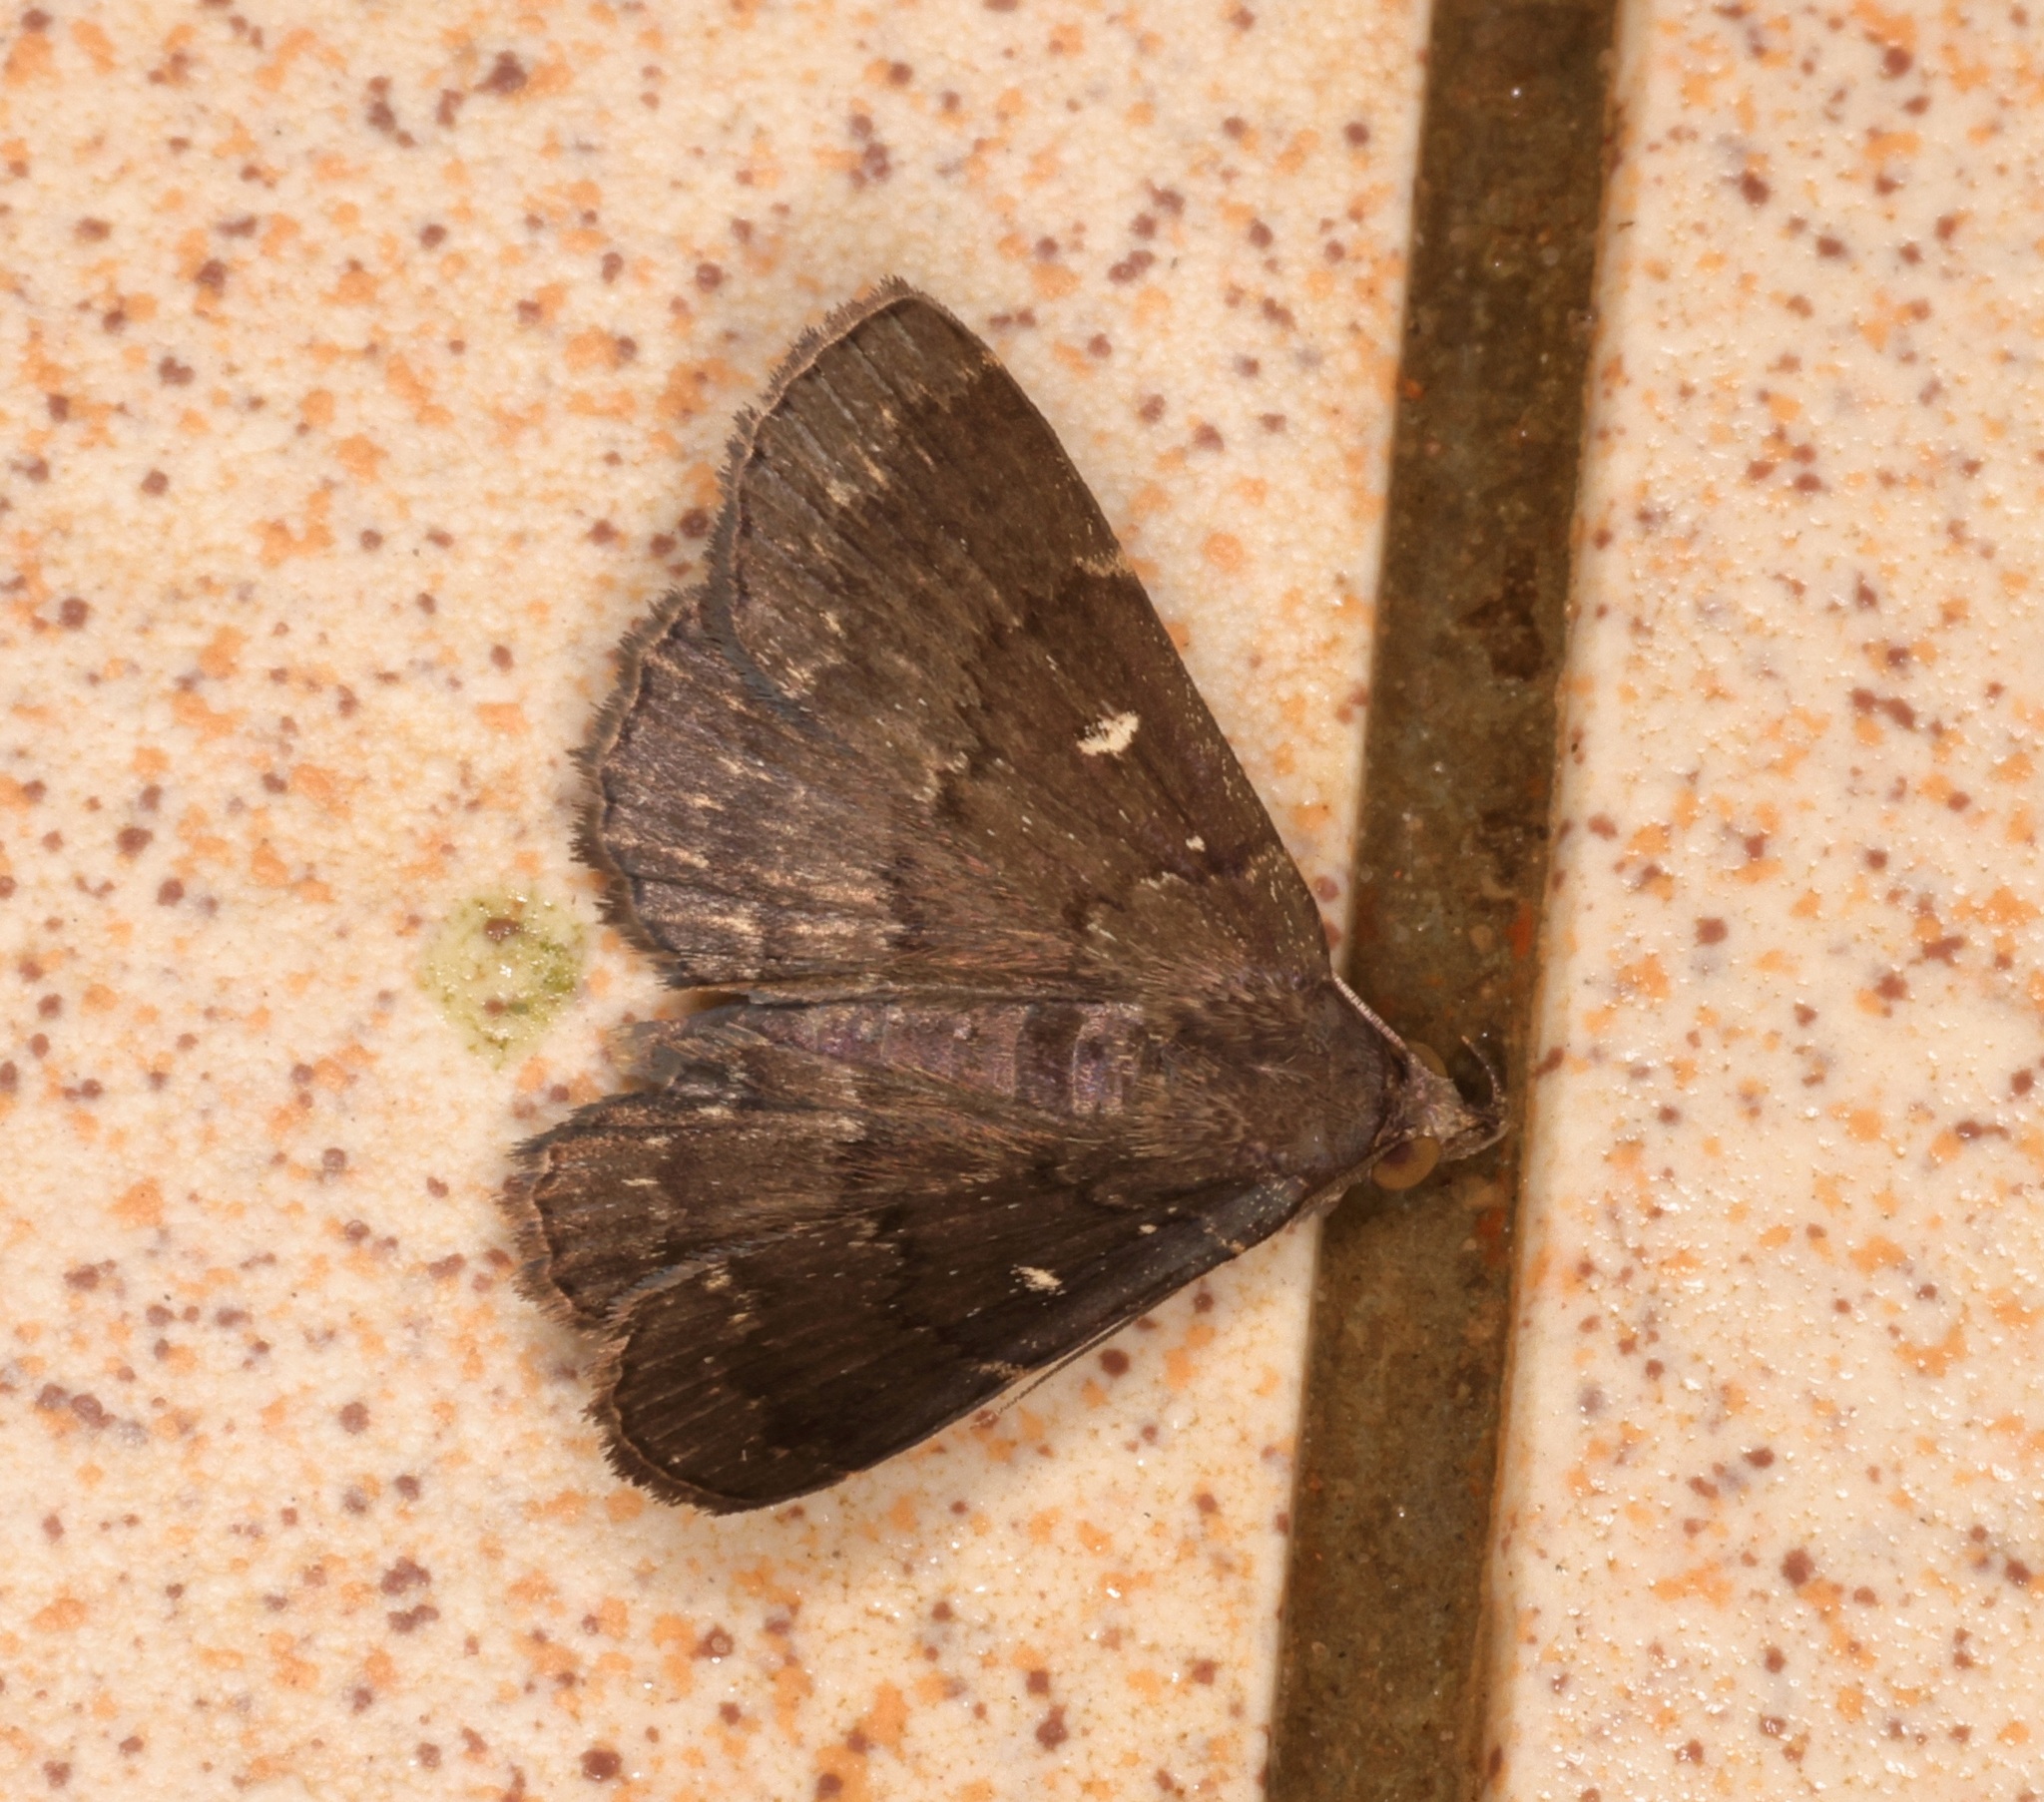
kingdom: Animalia
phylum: Arthropoda
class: Insecta
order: Lepidoptera
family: Erebidae
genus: Bocana
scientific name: Bocana manifestalis
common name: Moth
